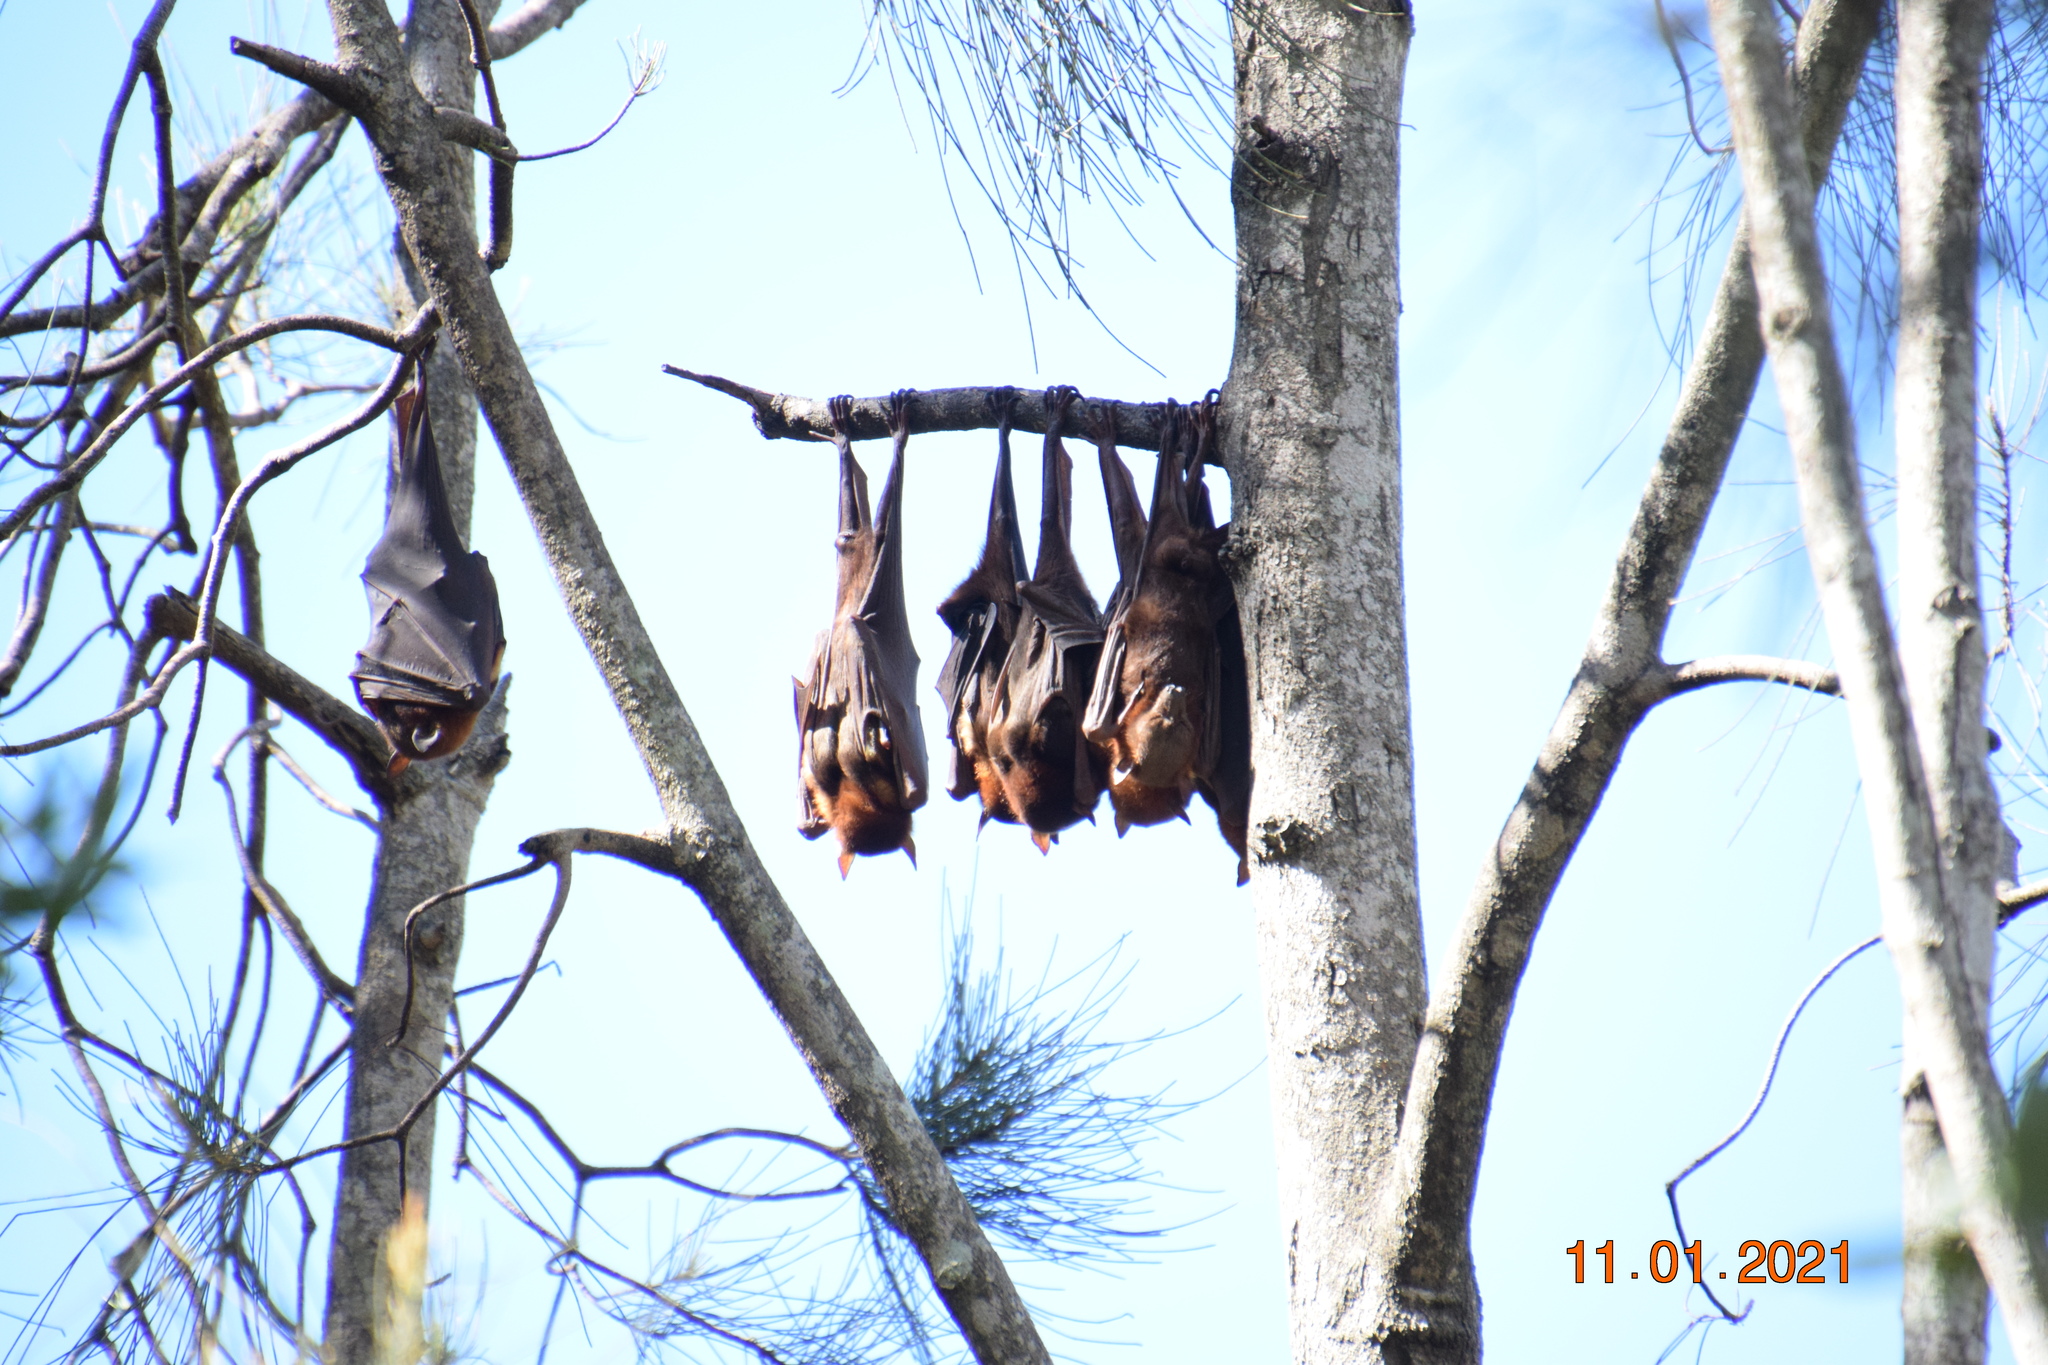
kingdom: Animalia
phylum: Chordata
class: Mammalia
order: Chiroptera
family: Pteropodidae
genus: Pteropus
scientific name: Pteropus scapulatus
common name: Little red flying fox
